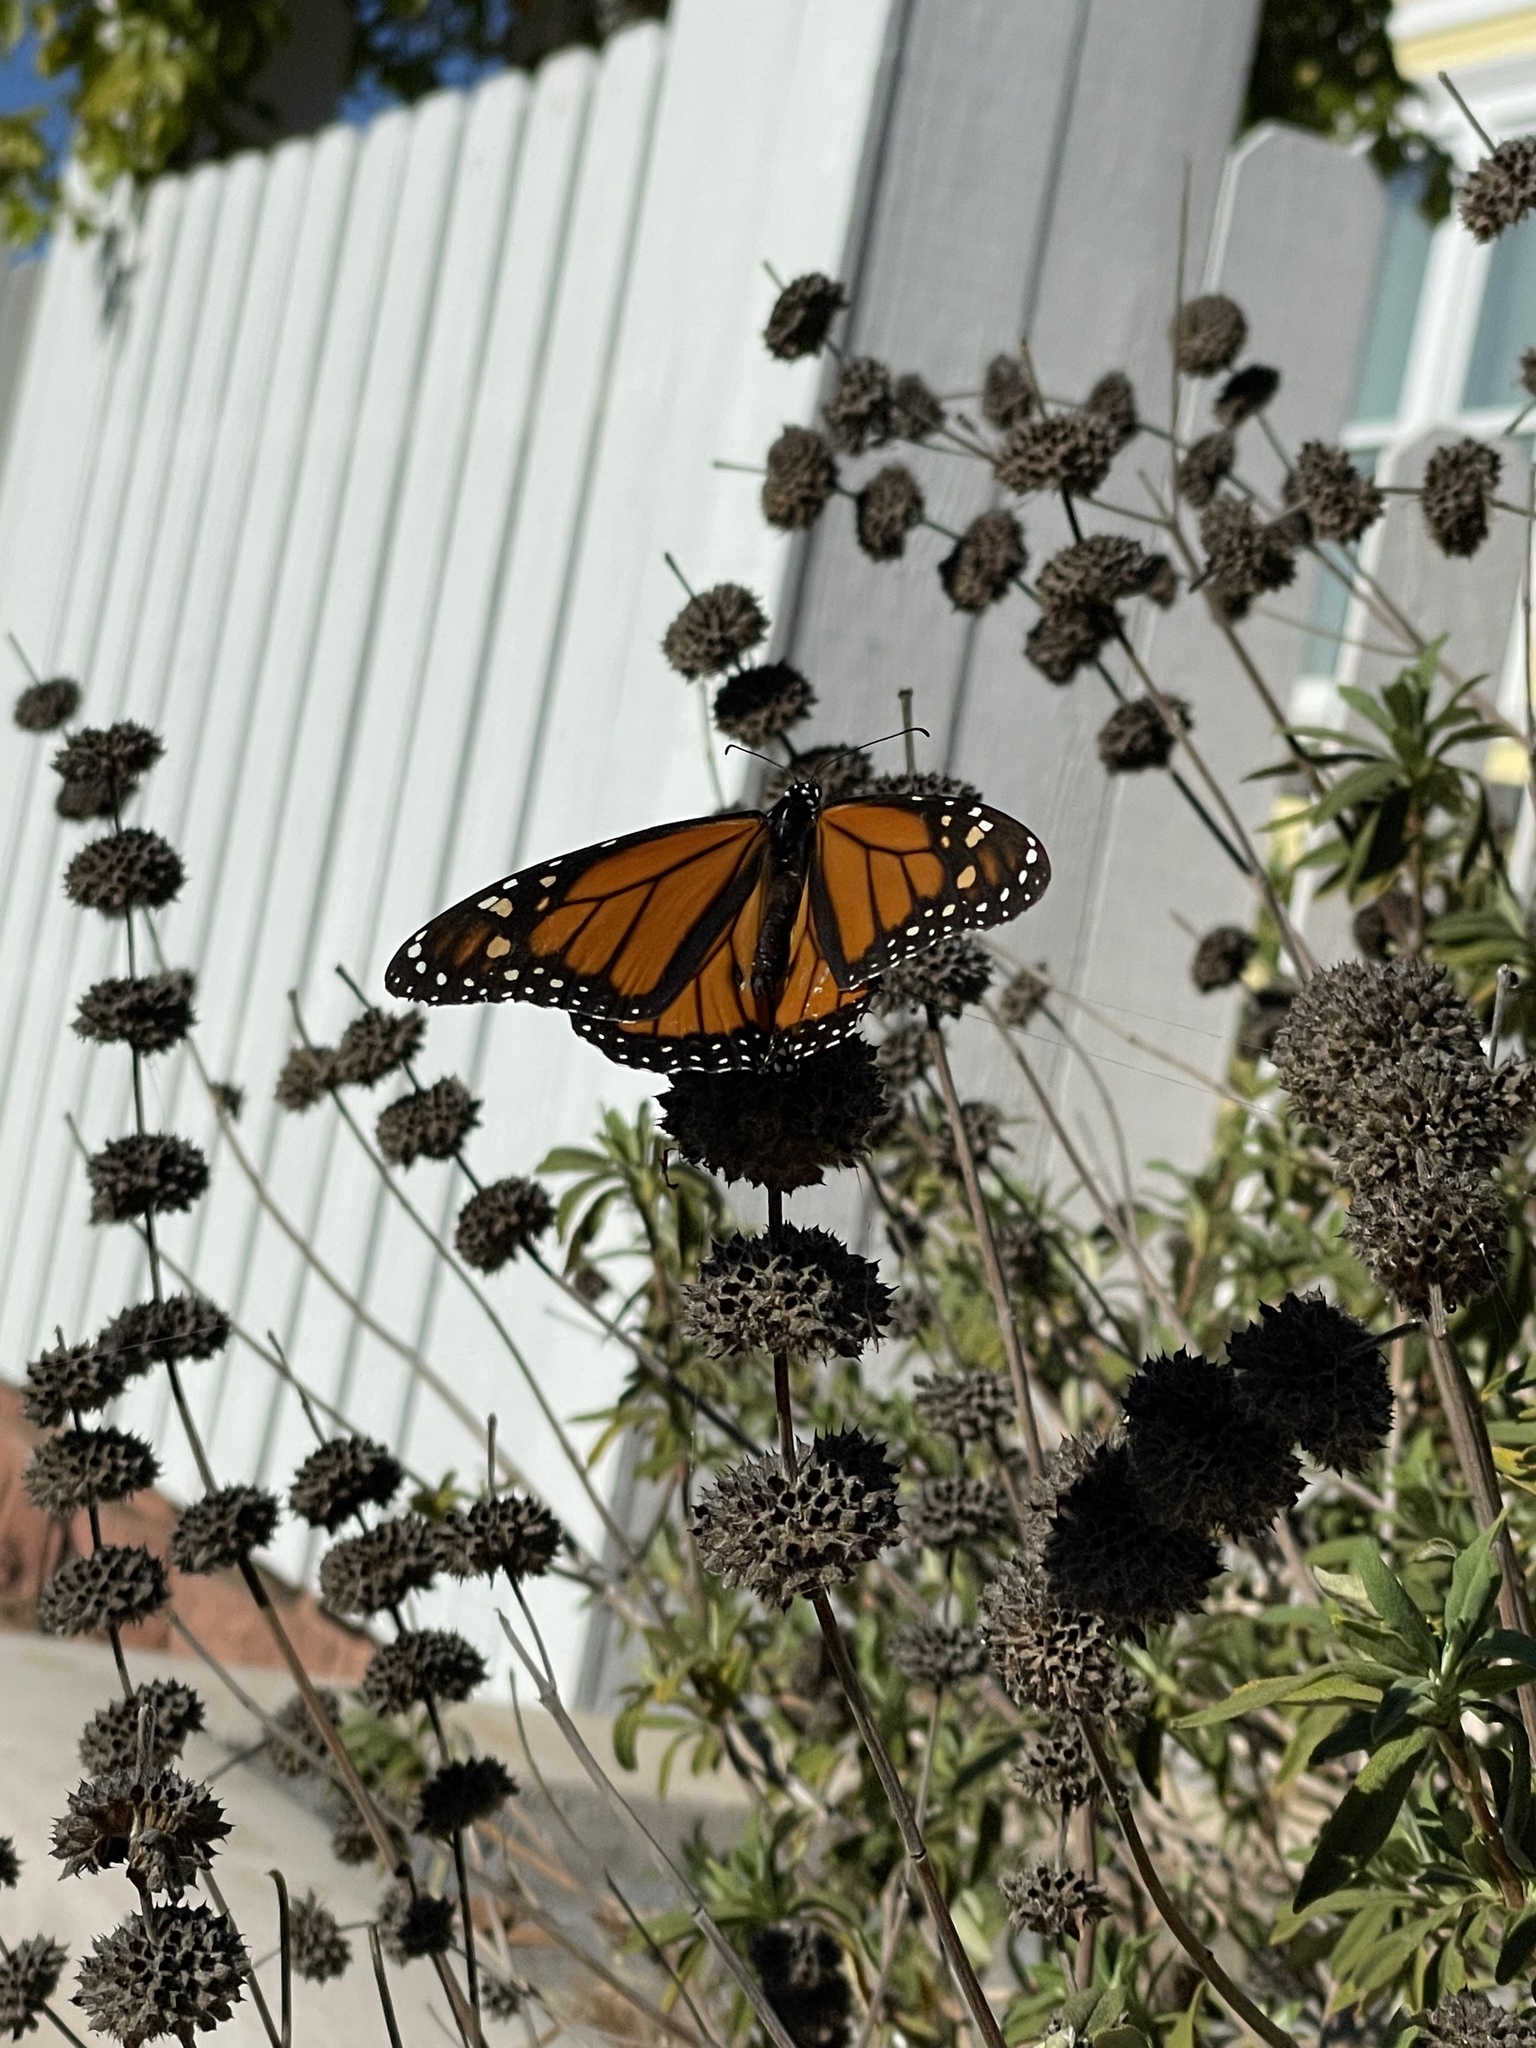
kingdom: Animalia
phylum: Arthropoda
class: Insecta
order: Lepidoptera
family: Nymphalidae
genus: Danaus
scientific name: Danaus plexippus
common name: Monarch
